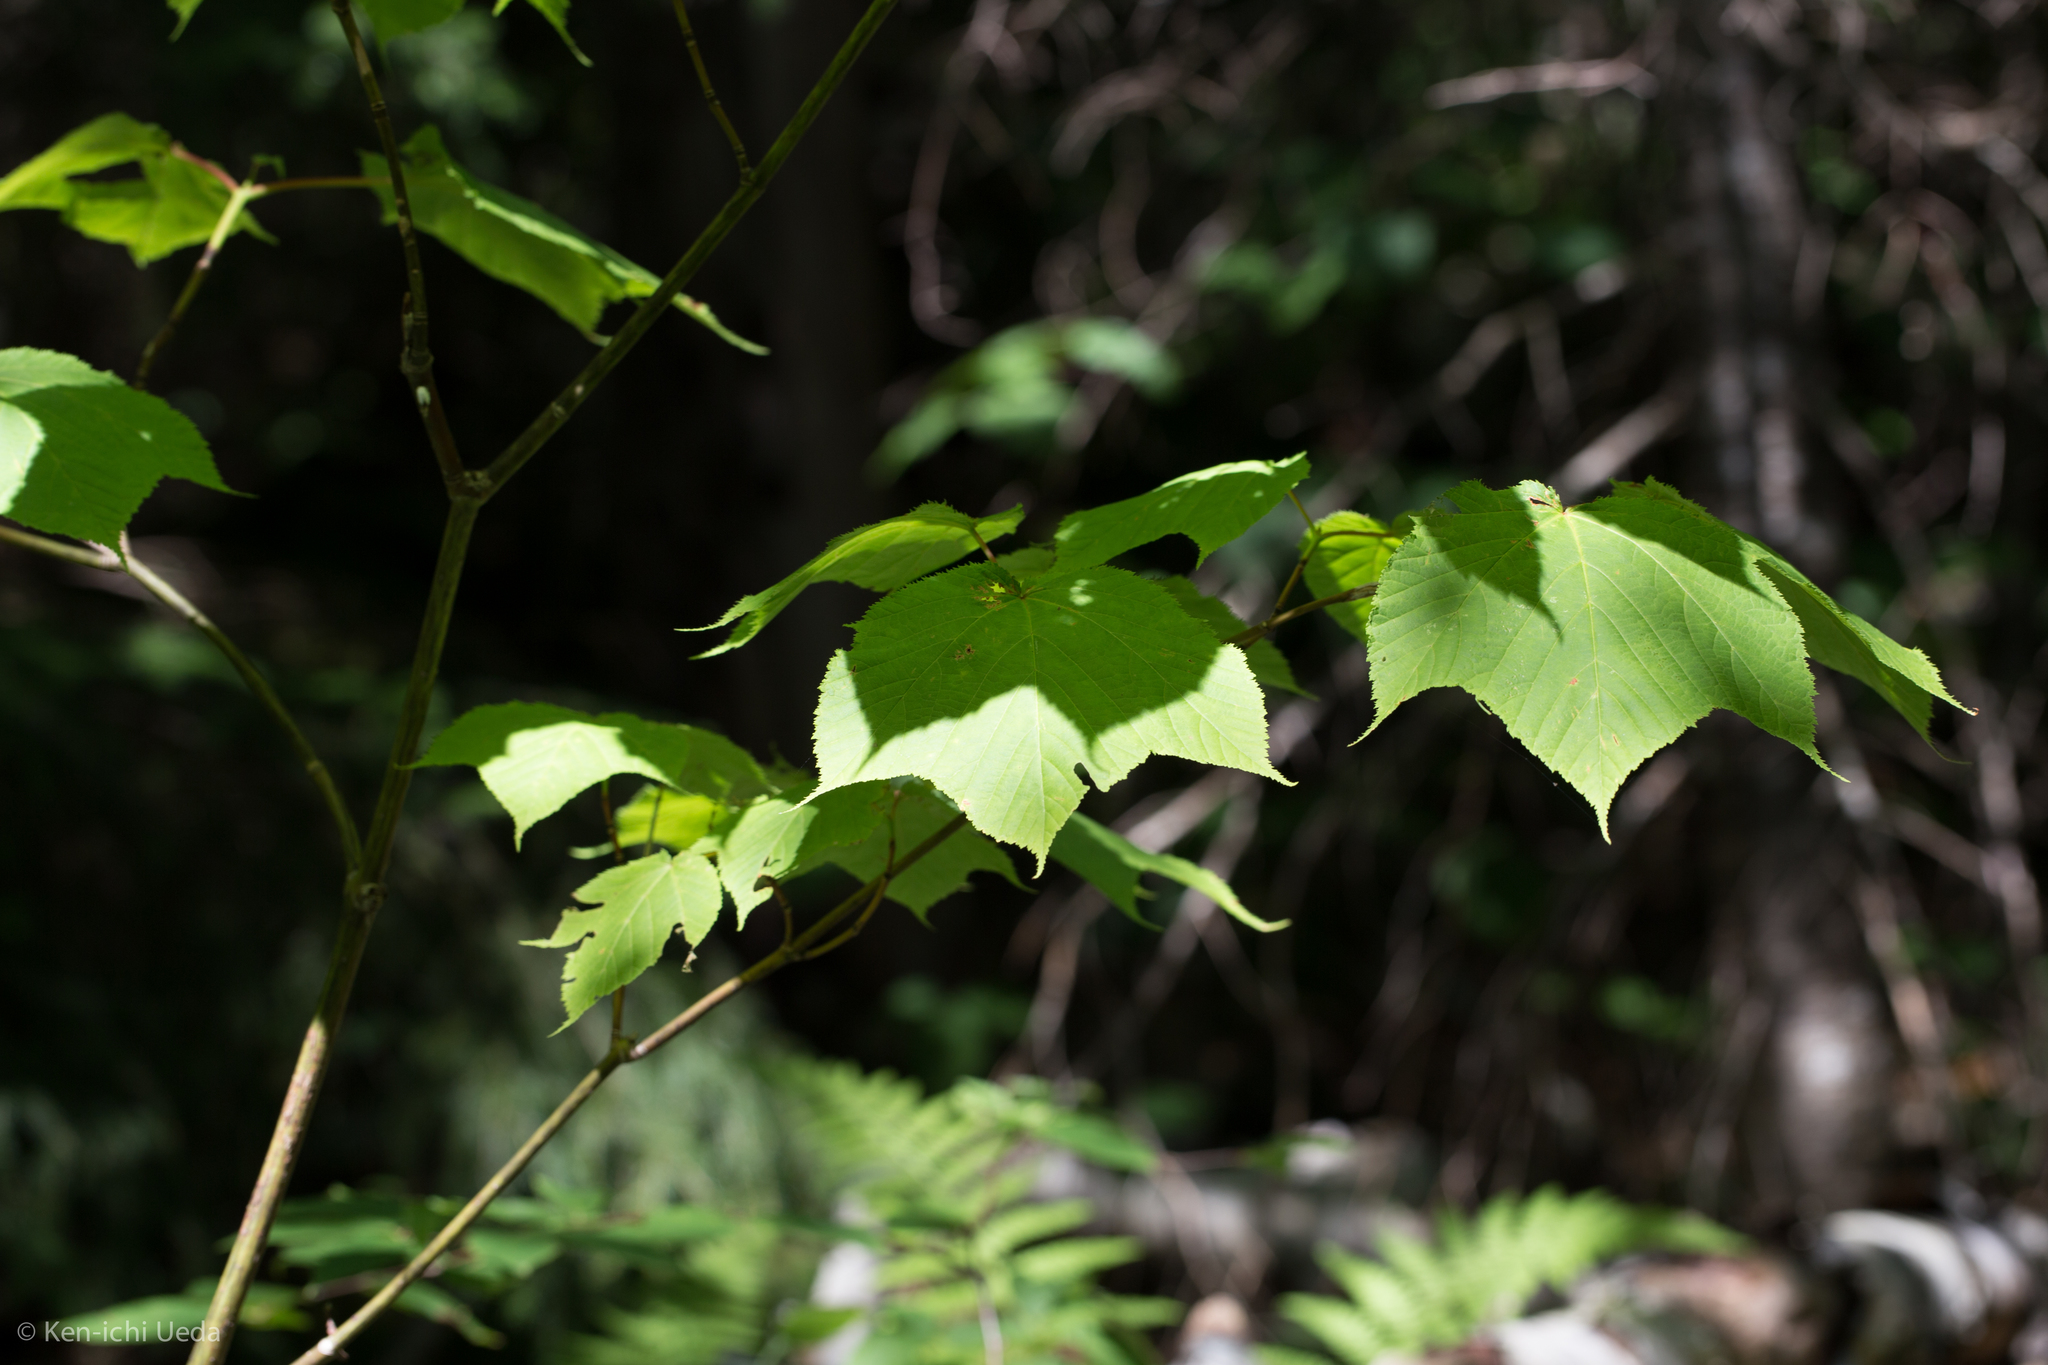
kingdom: Plantae
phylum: Tracheophyta
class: Magnoliopsida
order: Sapindales
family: Sapindaceae
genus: Acer
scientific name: Acer pensylvanicum
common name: Moosewood
